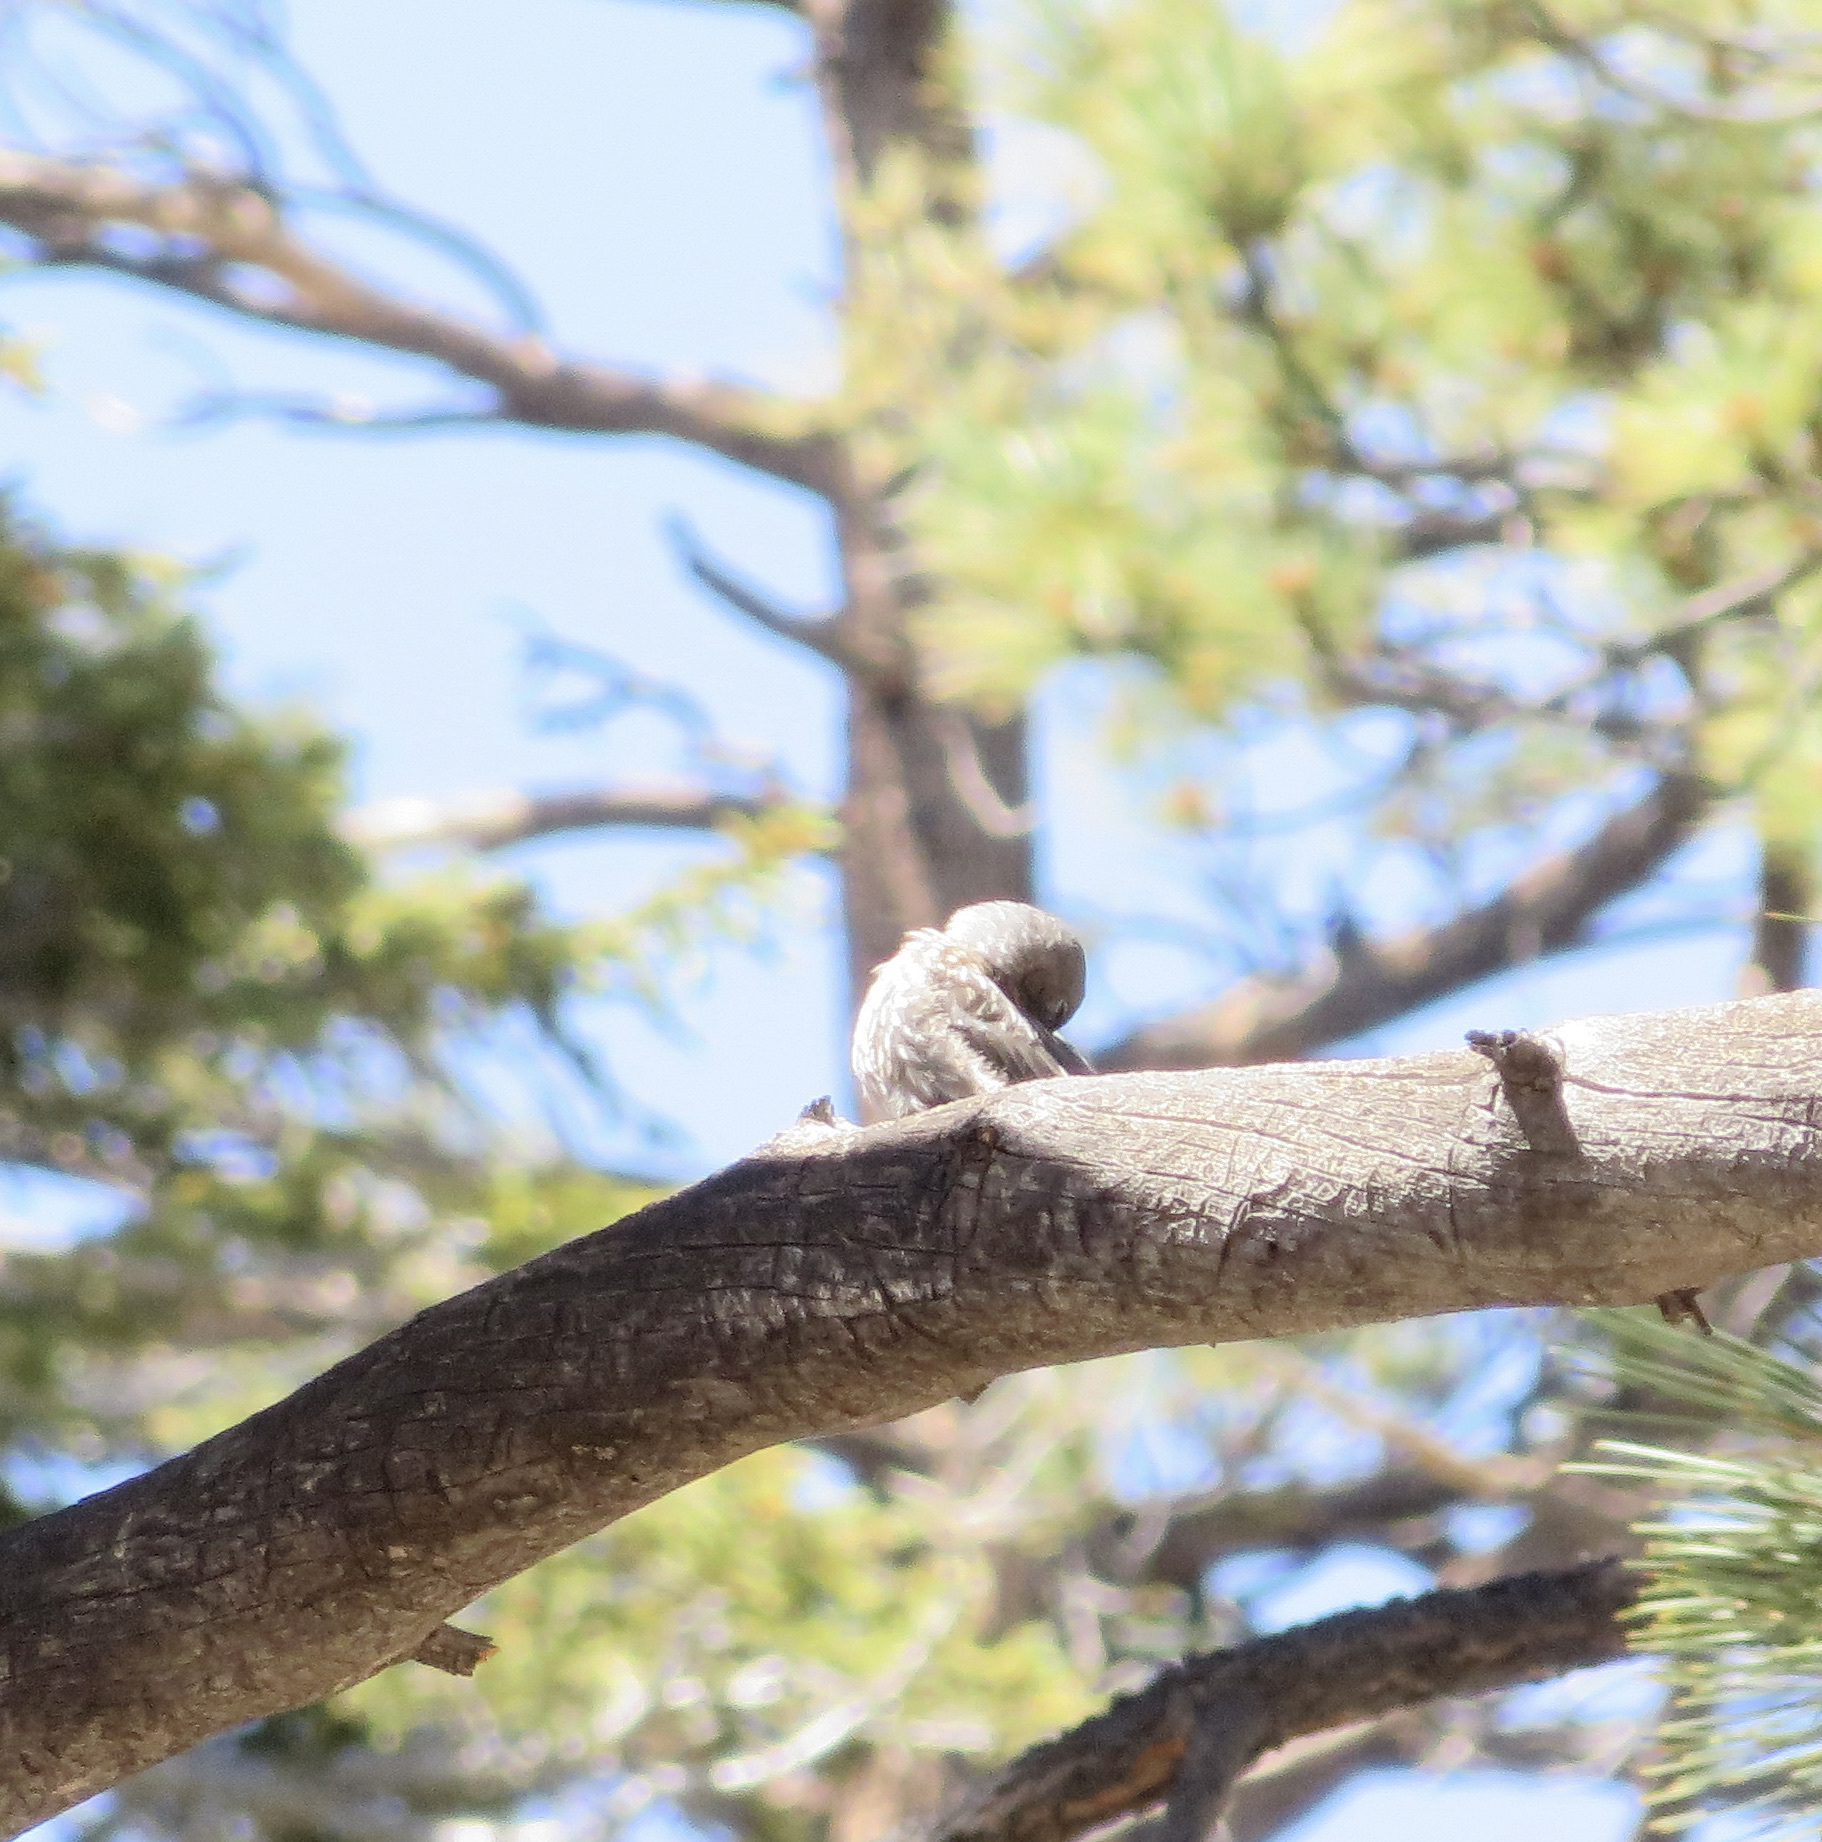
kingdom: Animalia
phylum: Chordata
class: Aves
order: Passeriformes
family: Turdidae
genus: Sialia
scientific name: Sialia mexicana
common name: Western bluebird
